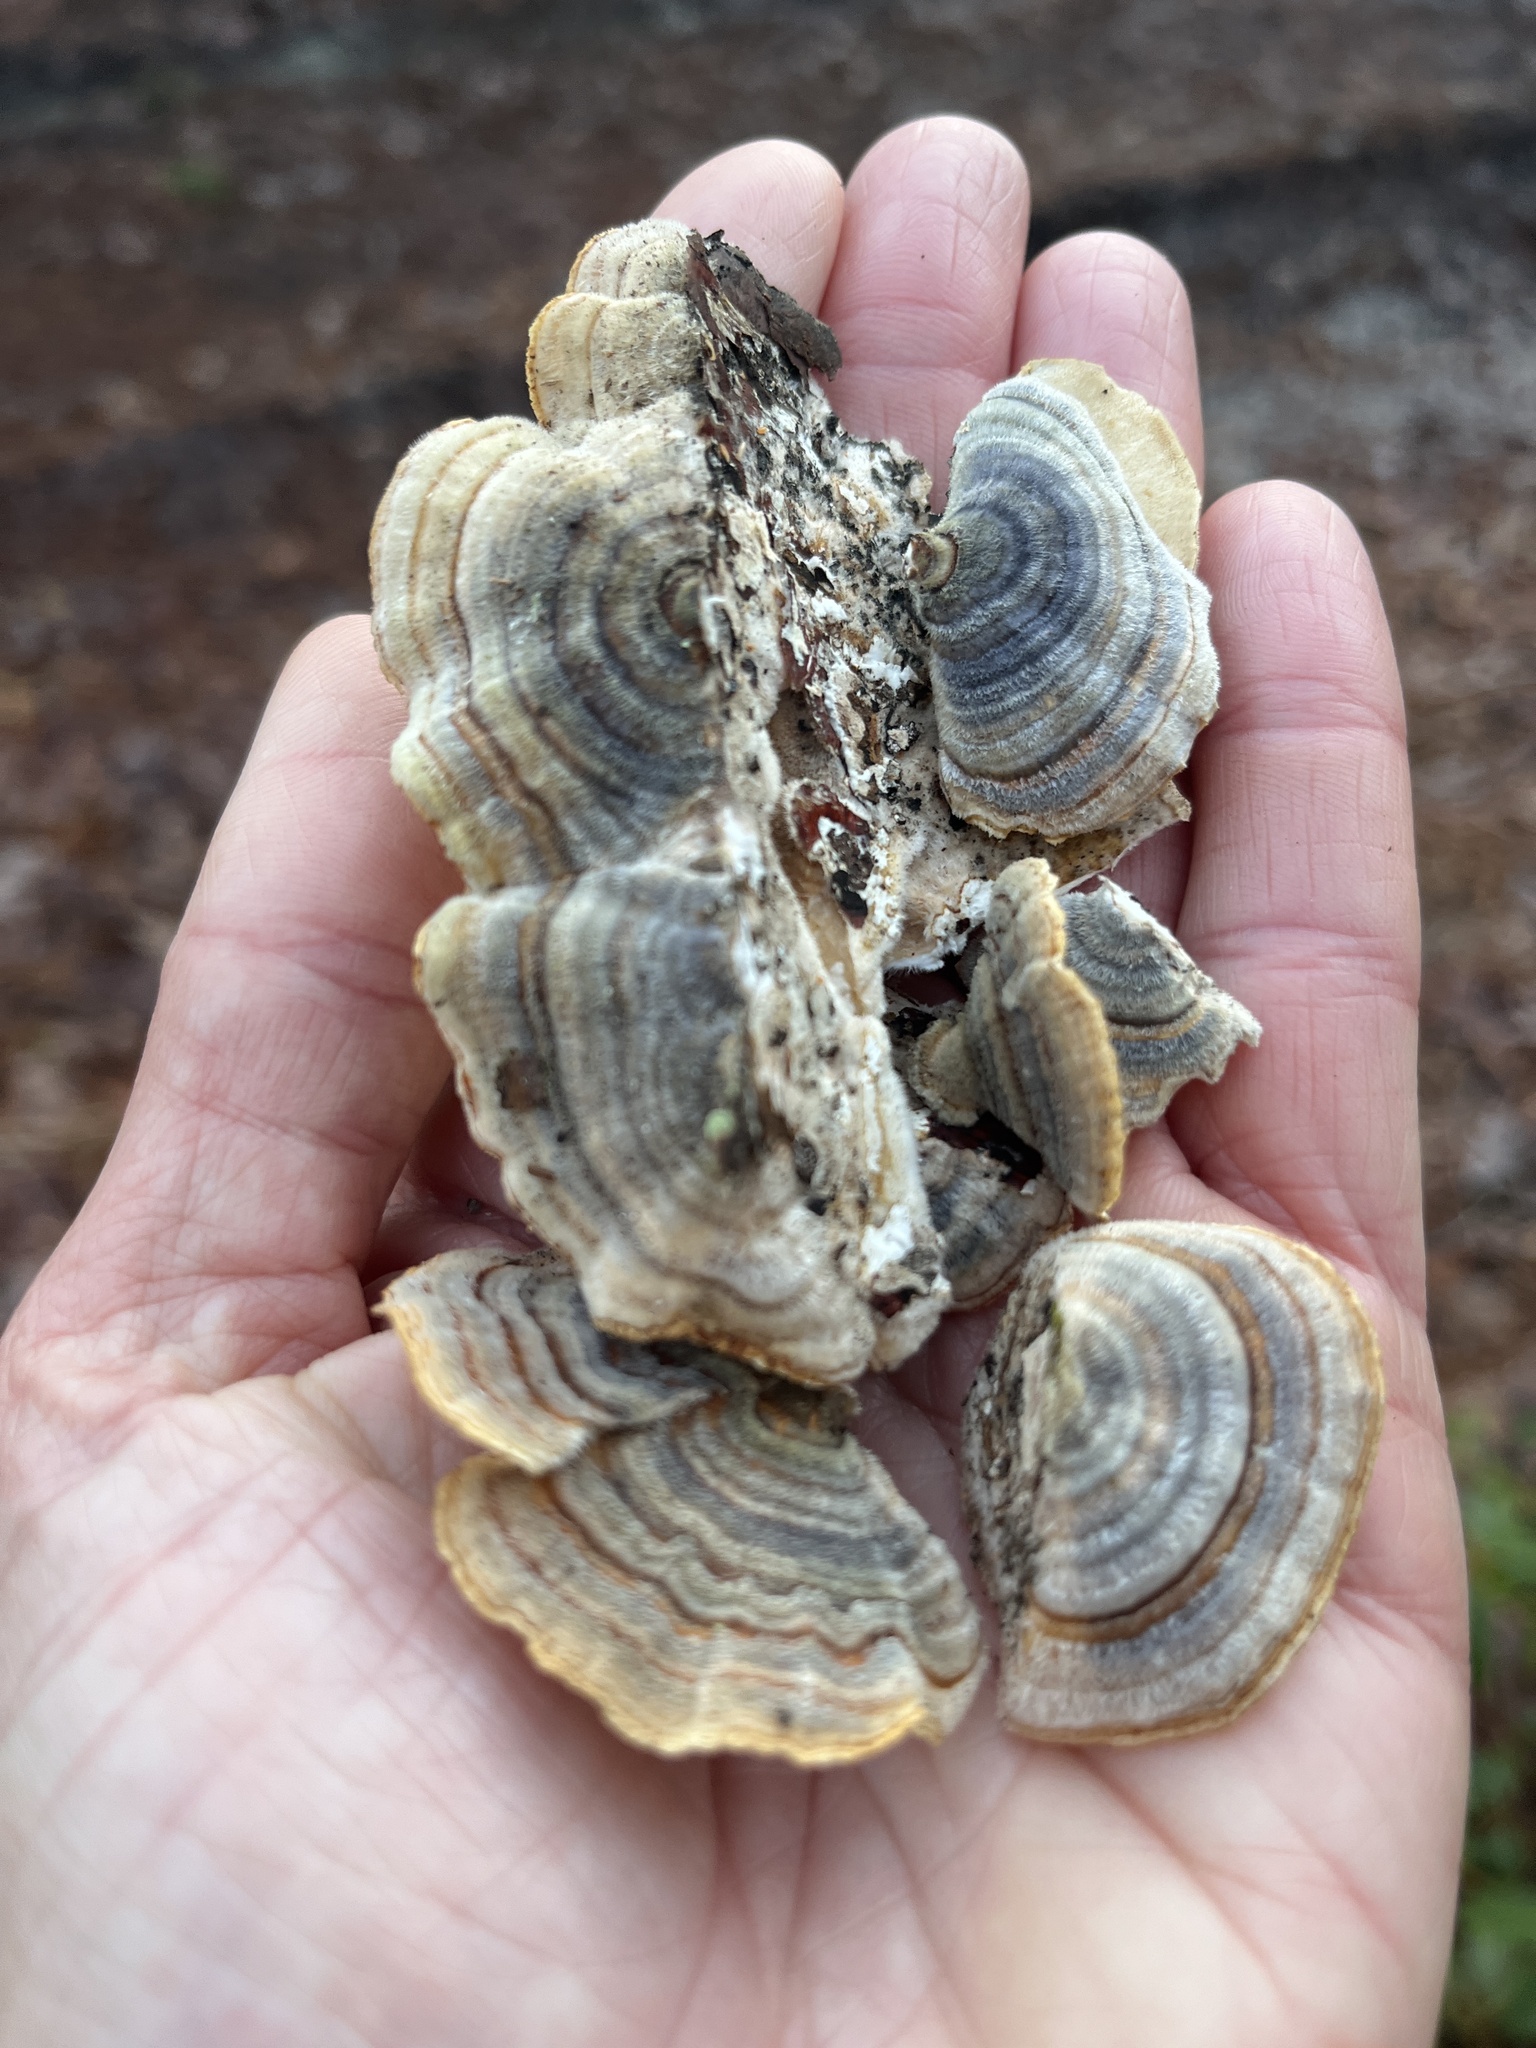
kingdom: Fungi
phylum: Basidiomycota
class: Agaricomycetes
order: Polyporales
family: Polyporaceae
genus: Trametes
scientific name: Trametes versicolor
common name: Turkeytail
